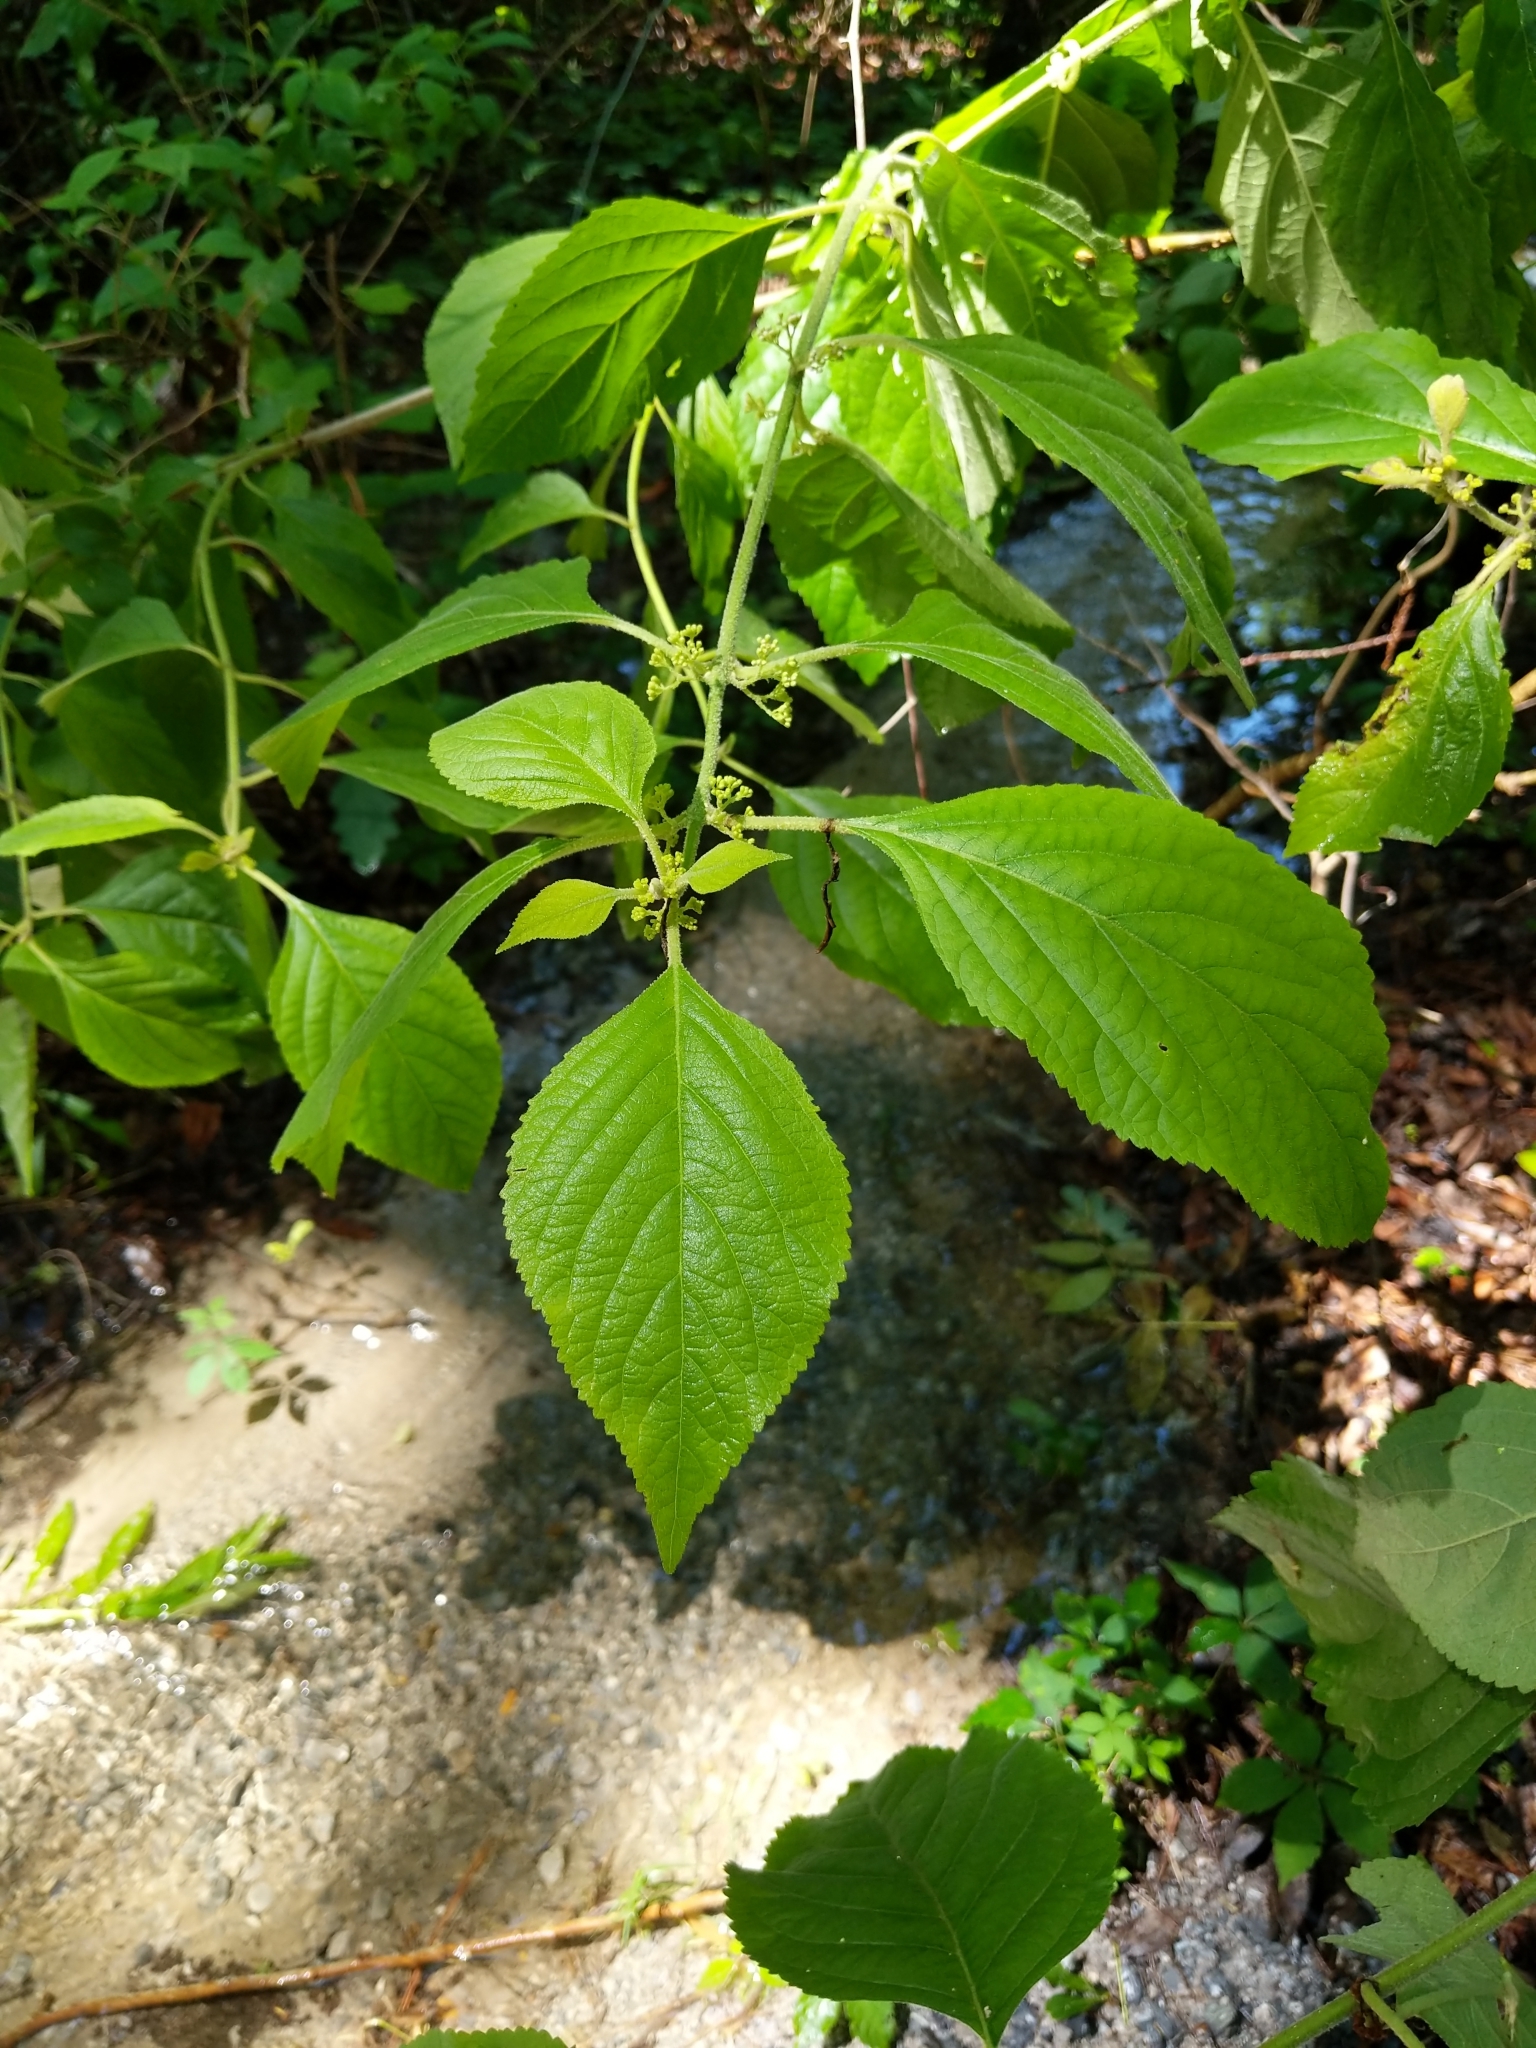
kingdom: Plantae
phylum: Tracheophyta
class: Magnoliopsida
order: Lamiales
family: Lamiaceae
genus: Callicarpa
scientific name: Callicarpa americana
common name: American beautyberry
